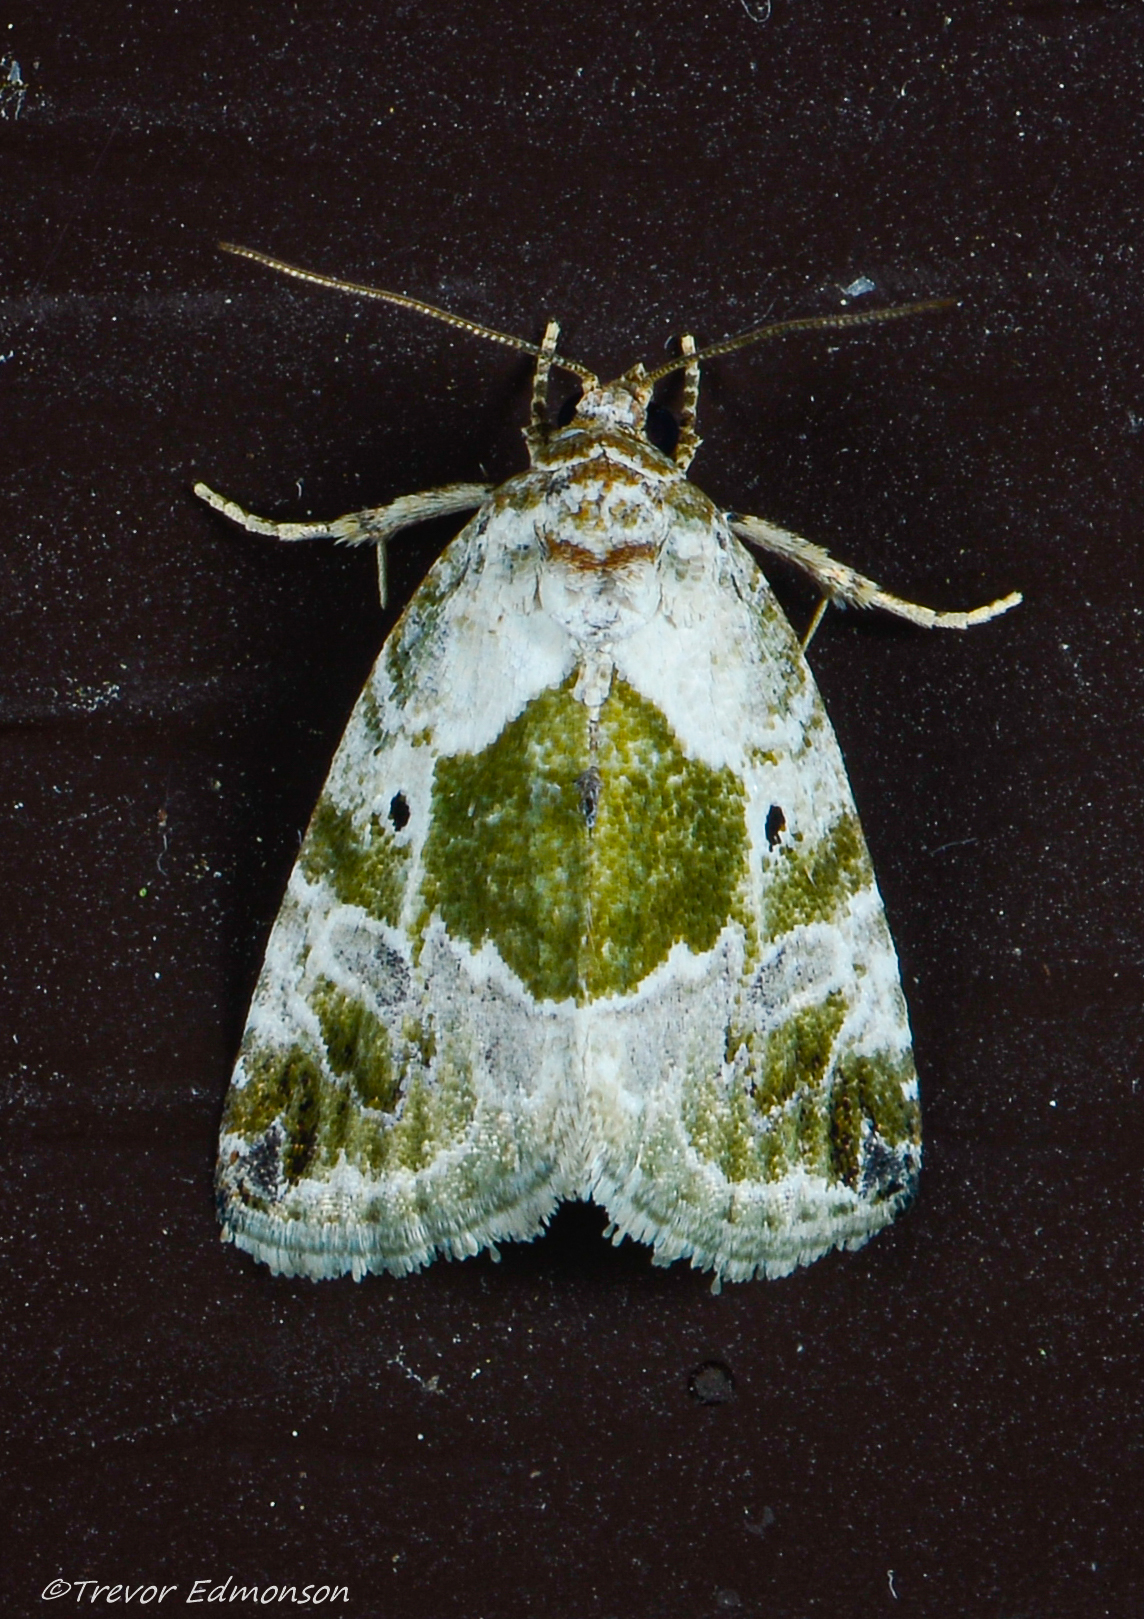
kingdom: Animalia
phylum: Arthropoda
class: Insecta
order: Lepidoptera
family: Noctuidae
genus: Maliattha
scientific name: Maliattha synochitis
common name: Black-dotted glyph
